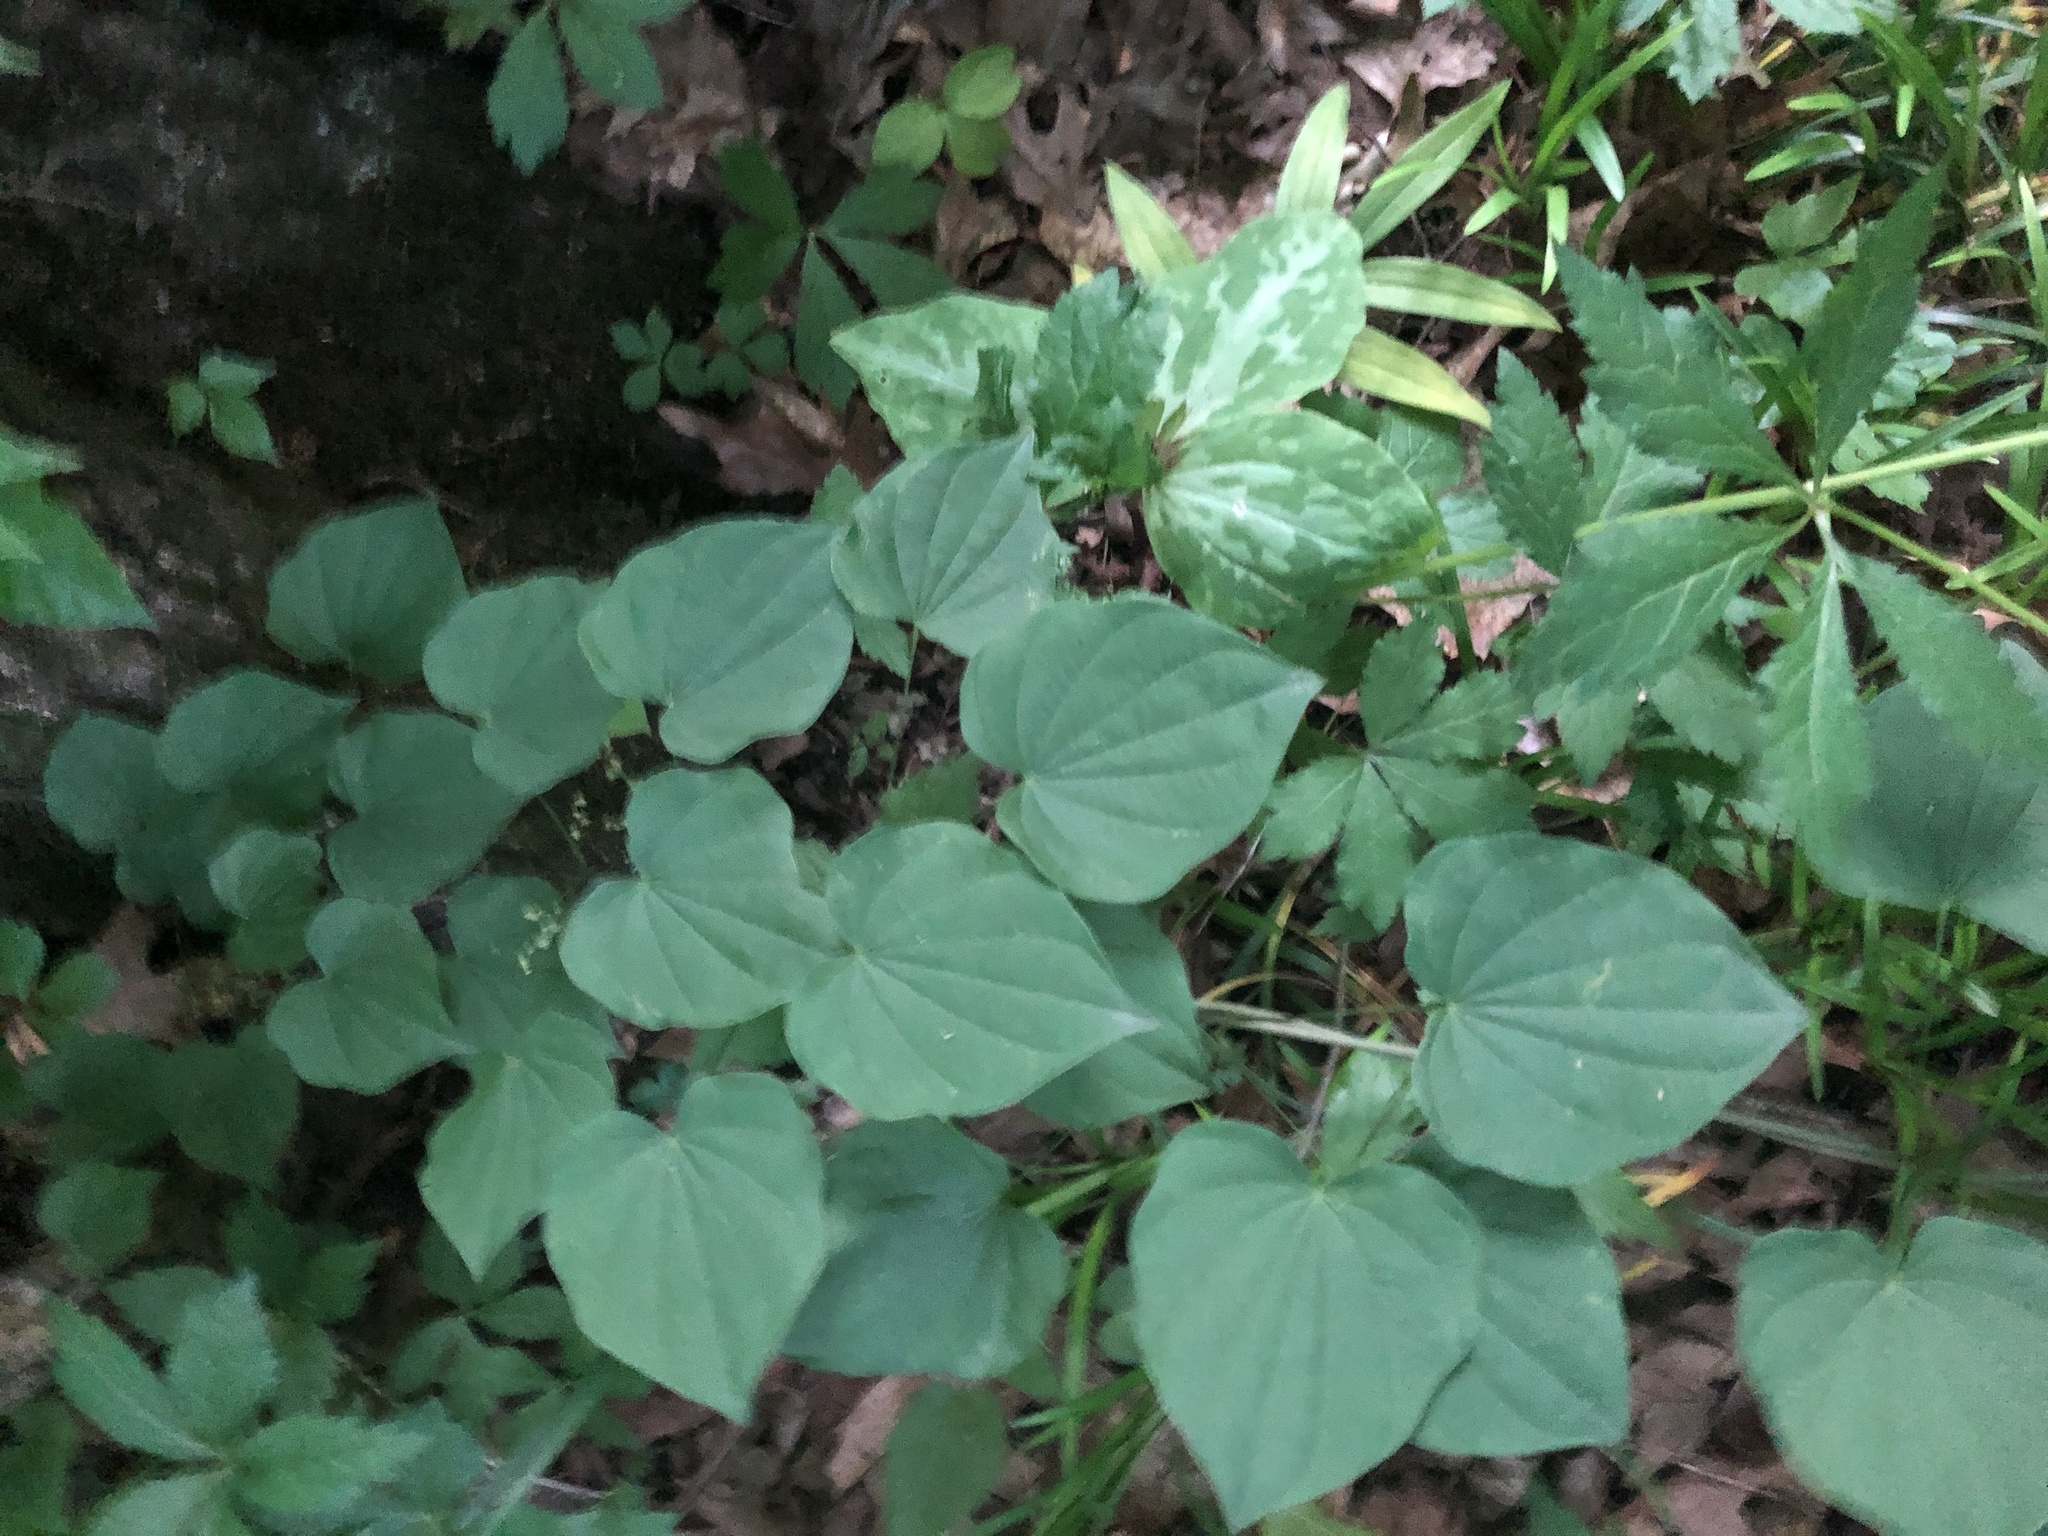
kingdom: Plantae
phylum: Tracheophyta
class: Liliopsida
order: Dioscoreales
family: Dioscoreaceae
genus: Dioscorea
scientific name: Dioscorea villosa
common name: Wild yam
